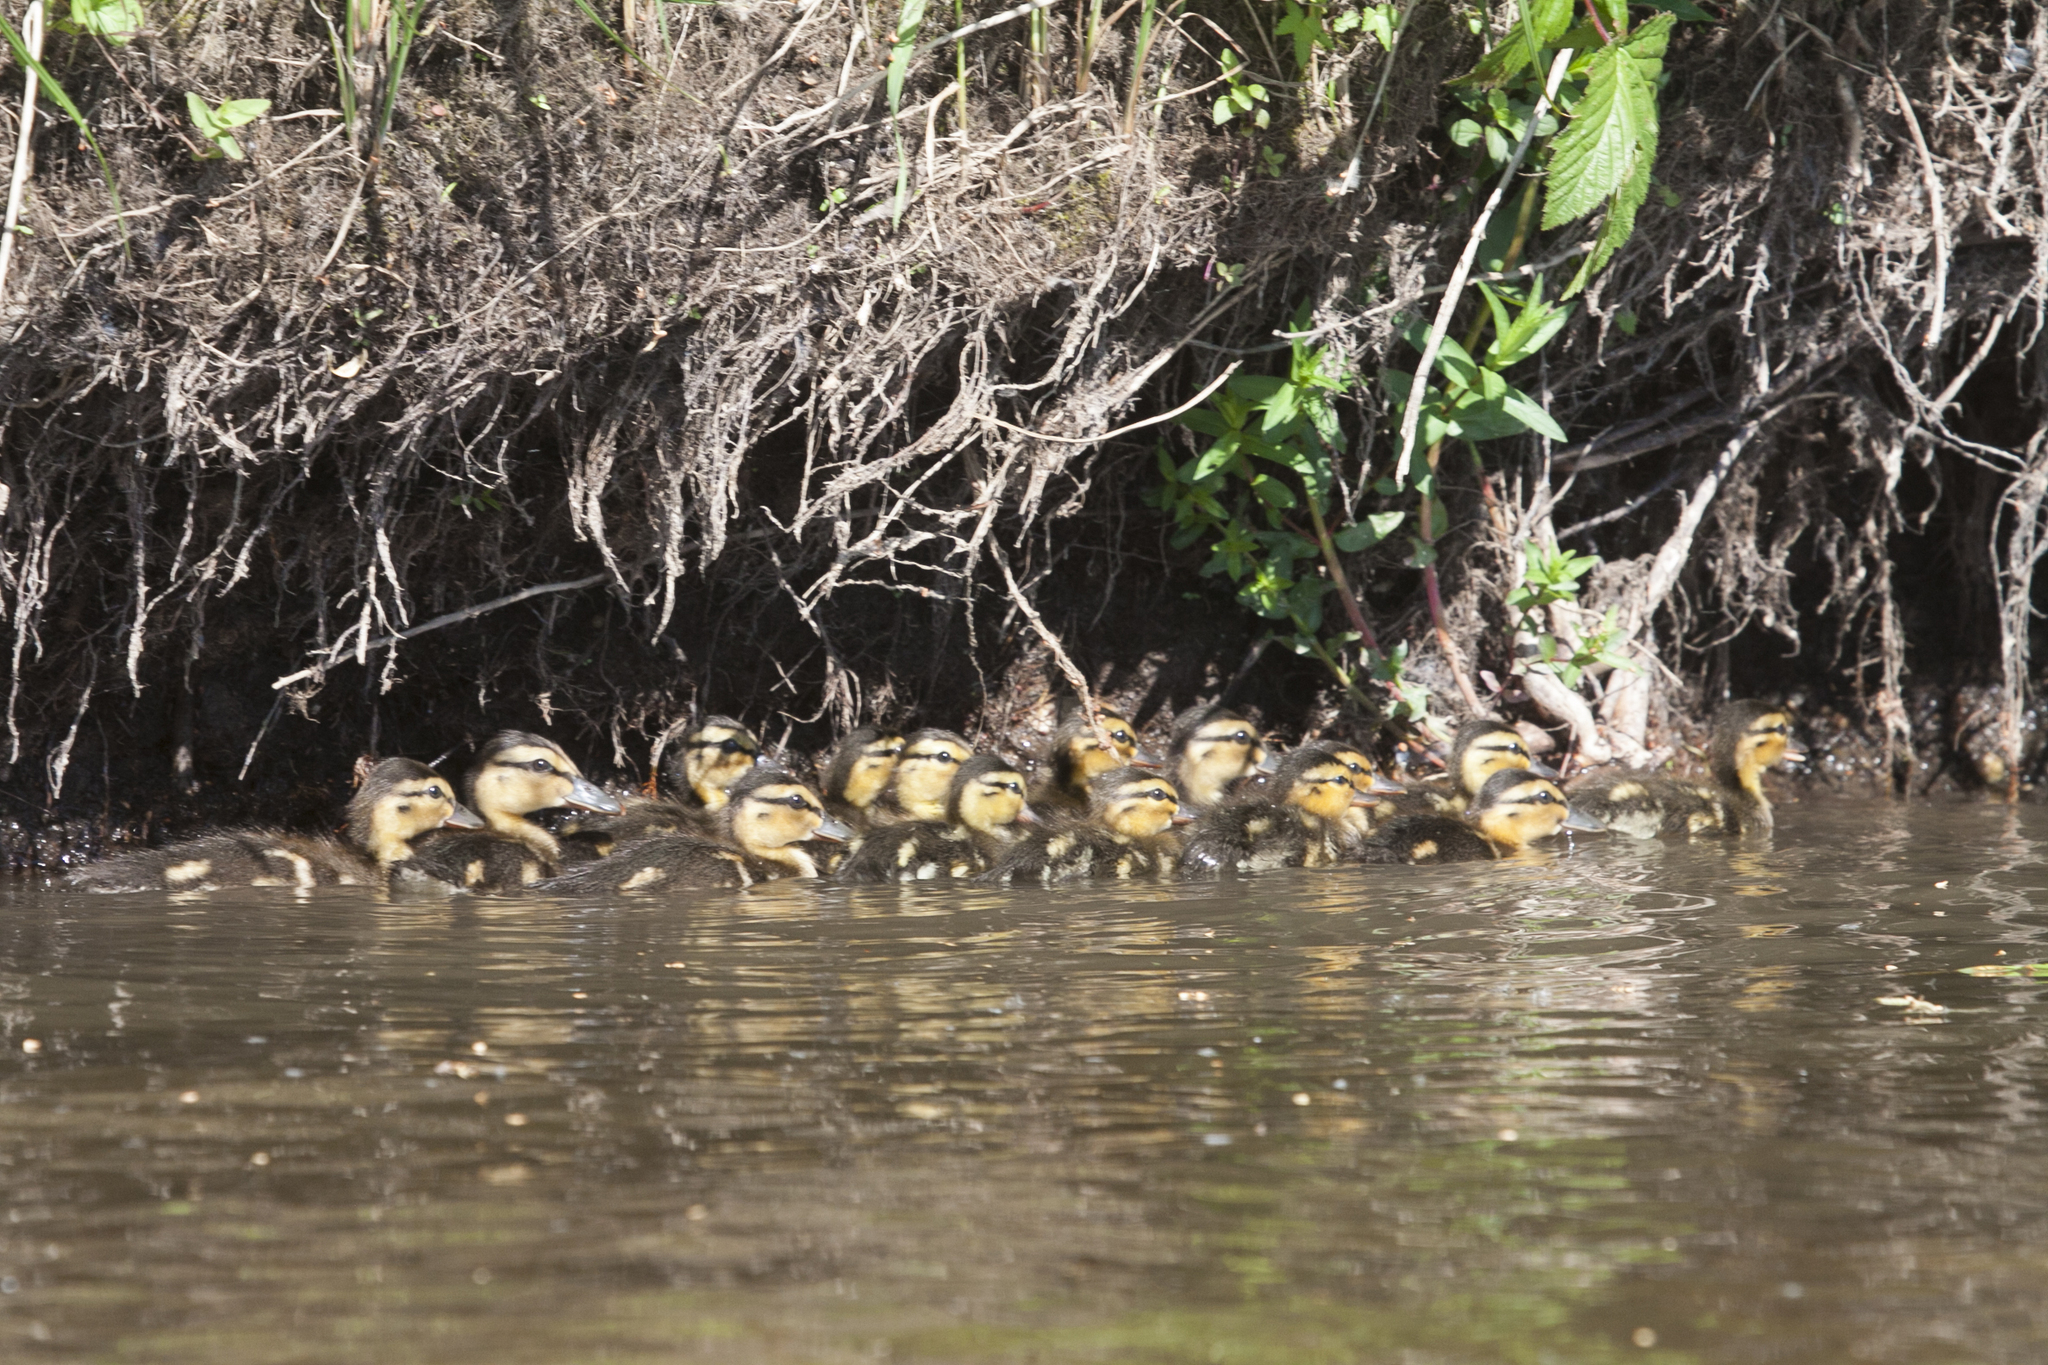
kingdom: Animalia
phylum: Chordata
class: Aves
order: Anseriformes
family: Anatidae
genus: Anas
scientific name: Anas platyrhynchos
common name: Mallard
